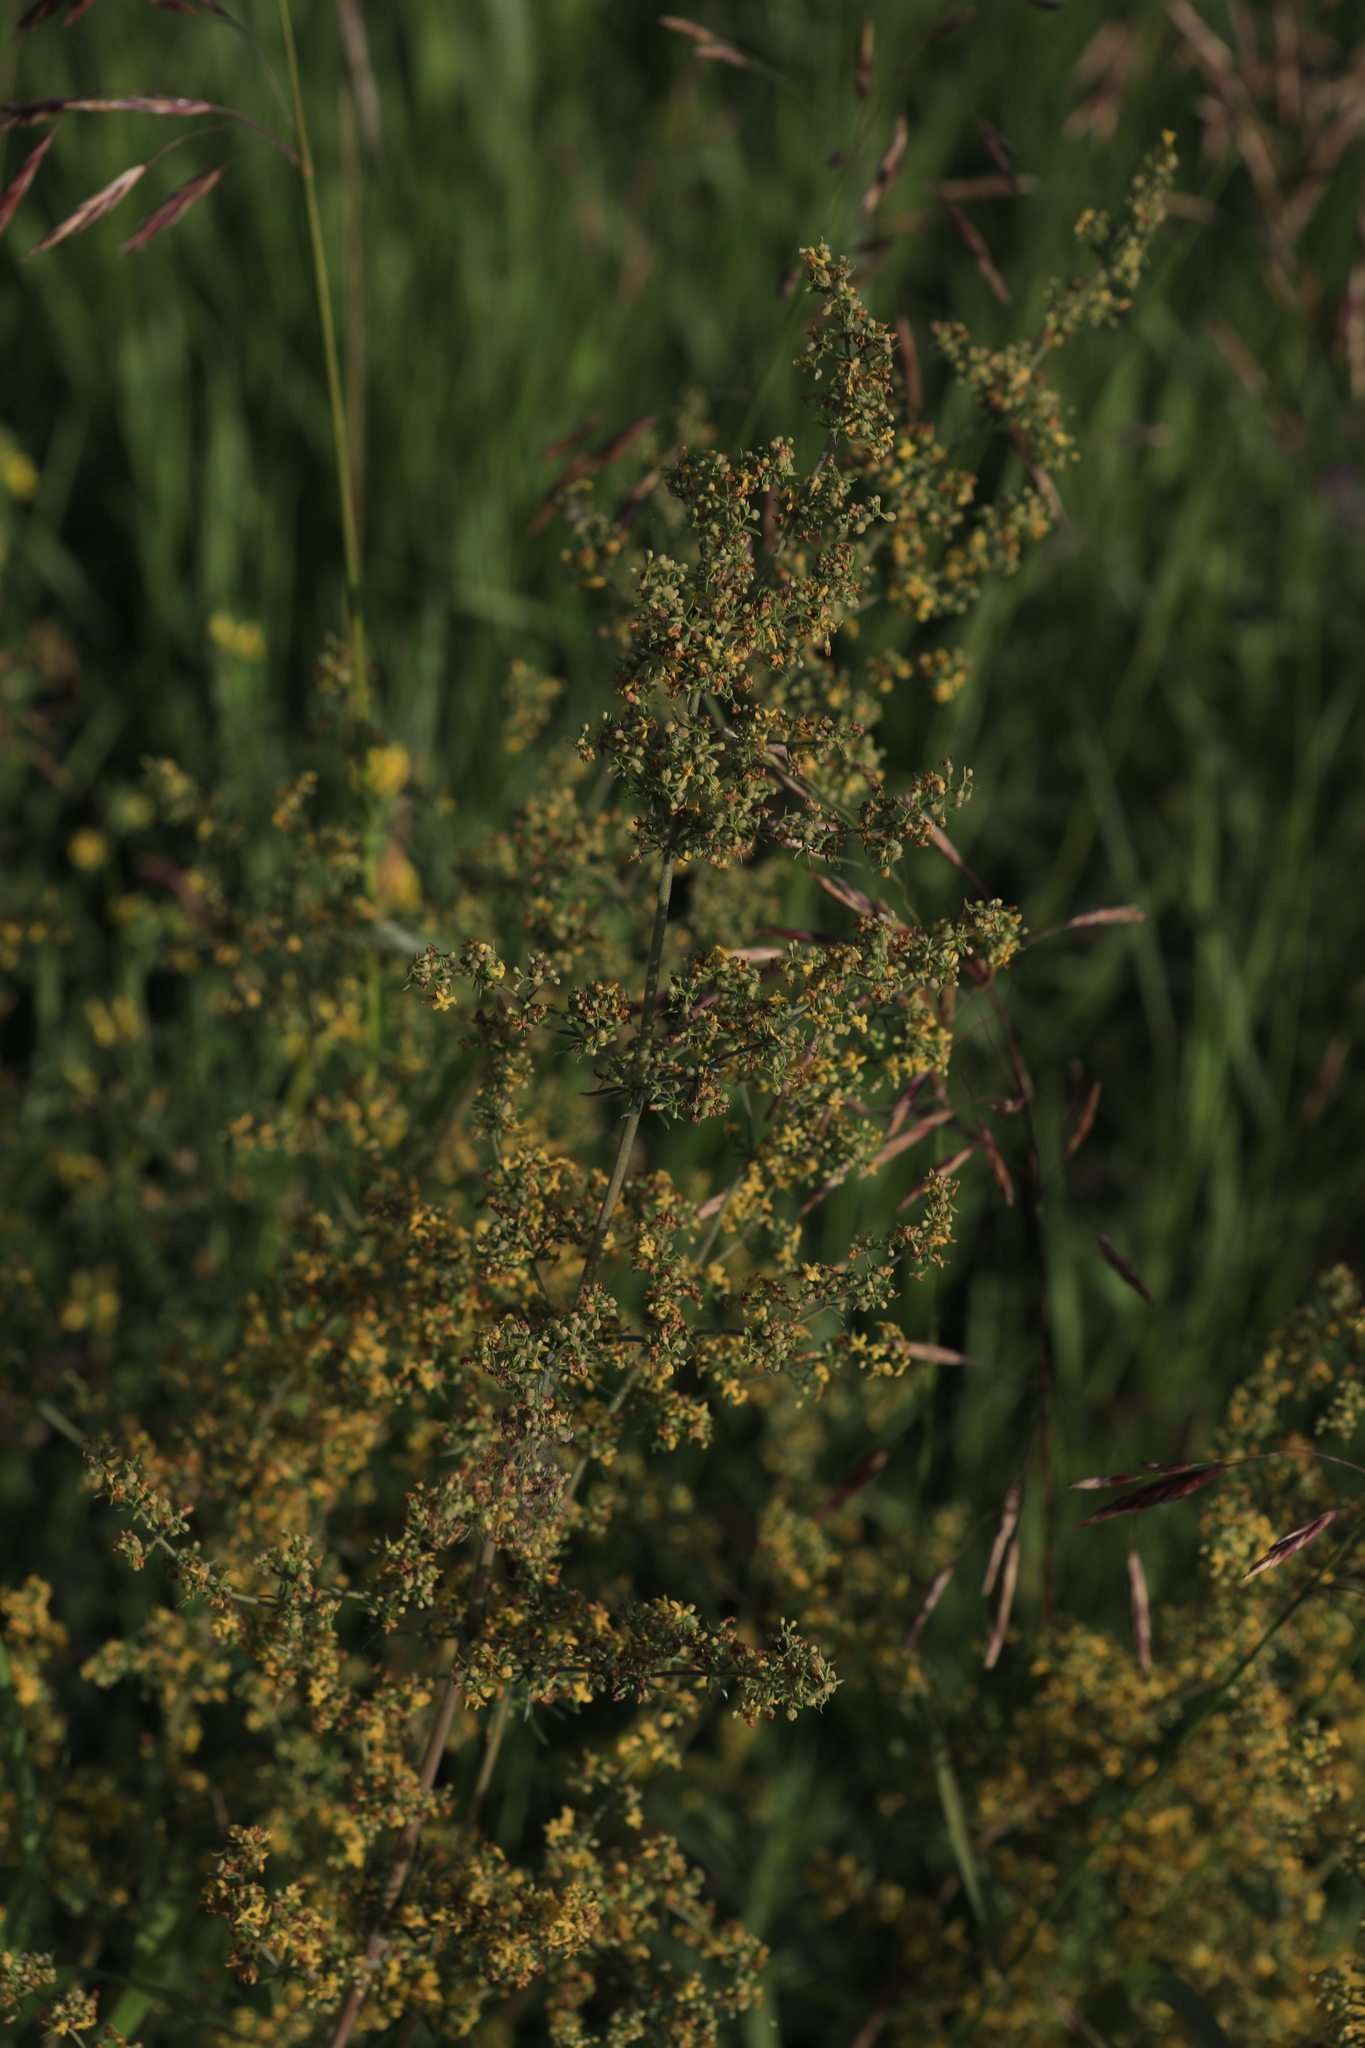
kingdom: Plantae
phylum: Tracheophyta
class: Magnoliopsida
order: Gentianales
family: Rubiaceae
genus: Galium
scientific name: Galium verum
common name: Lady's bedstraw
